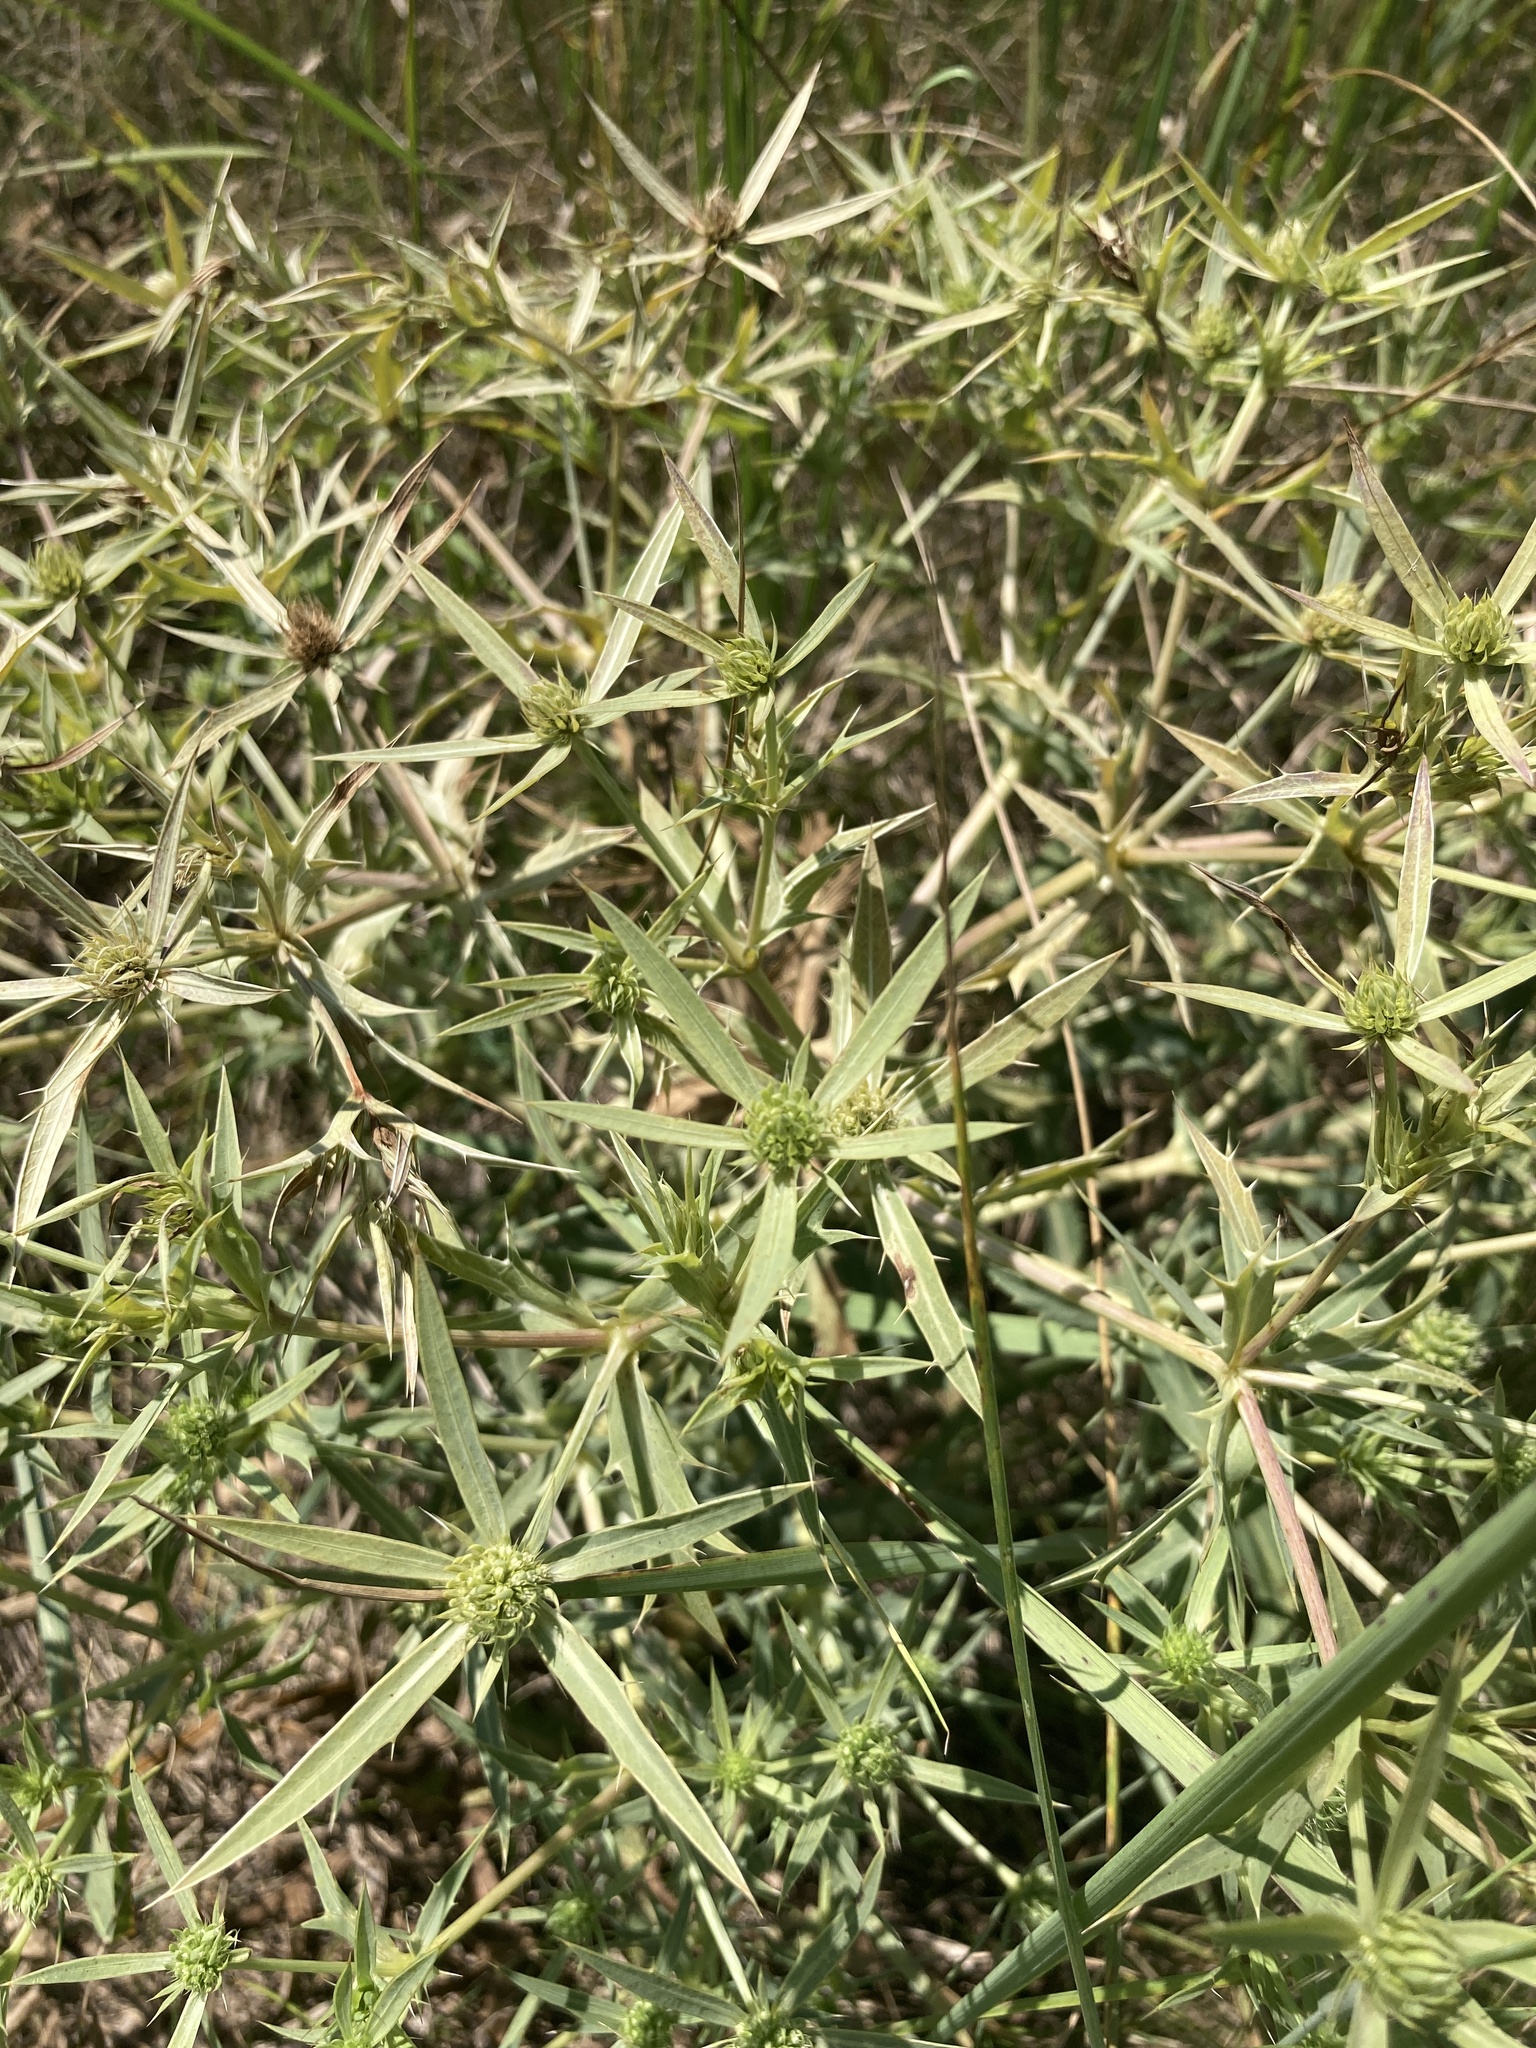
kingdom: Plantae
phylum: Tracheophyta
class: Magnoliopsida
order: Apiales
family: Apiaceae
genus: Eryngium
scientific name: Eryngium campestre
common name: Field eryngo
